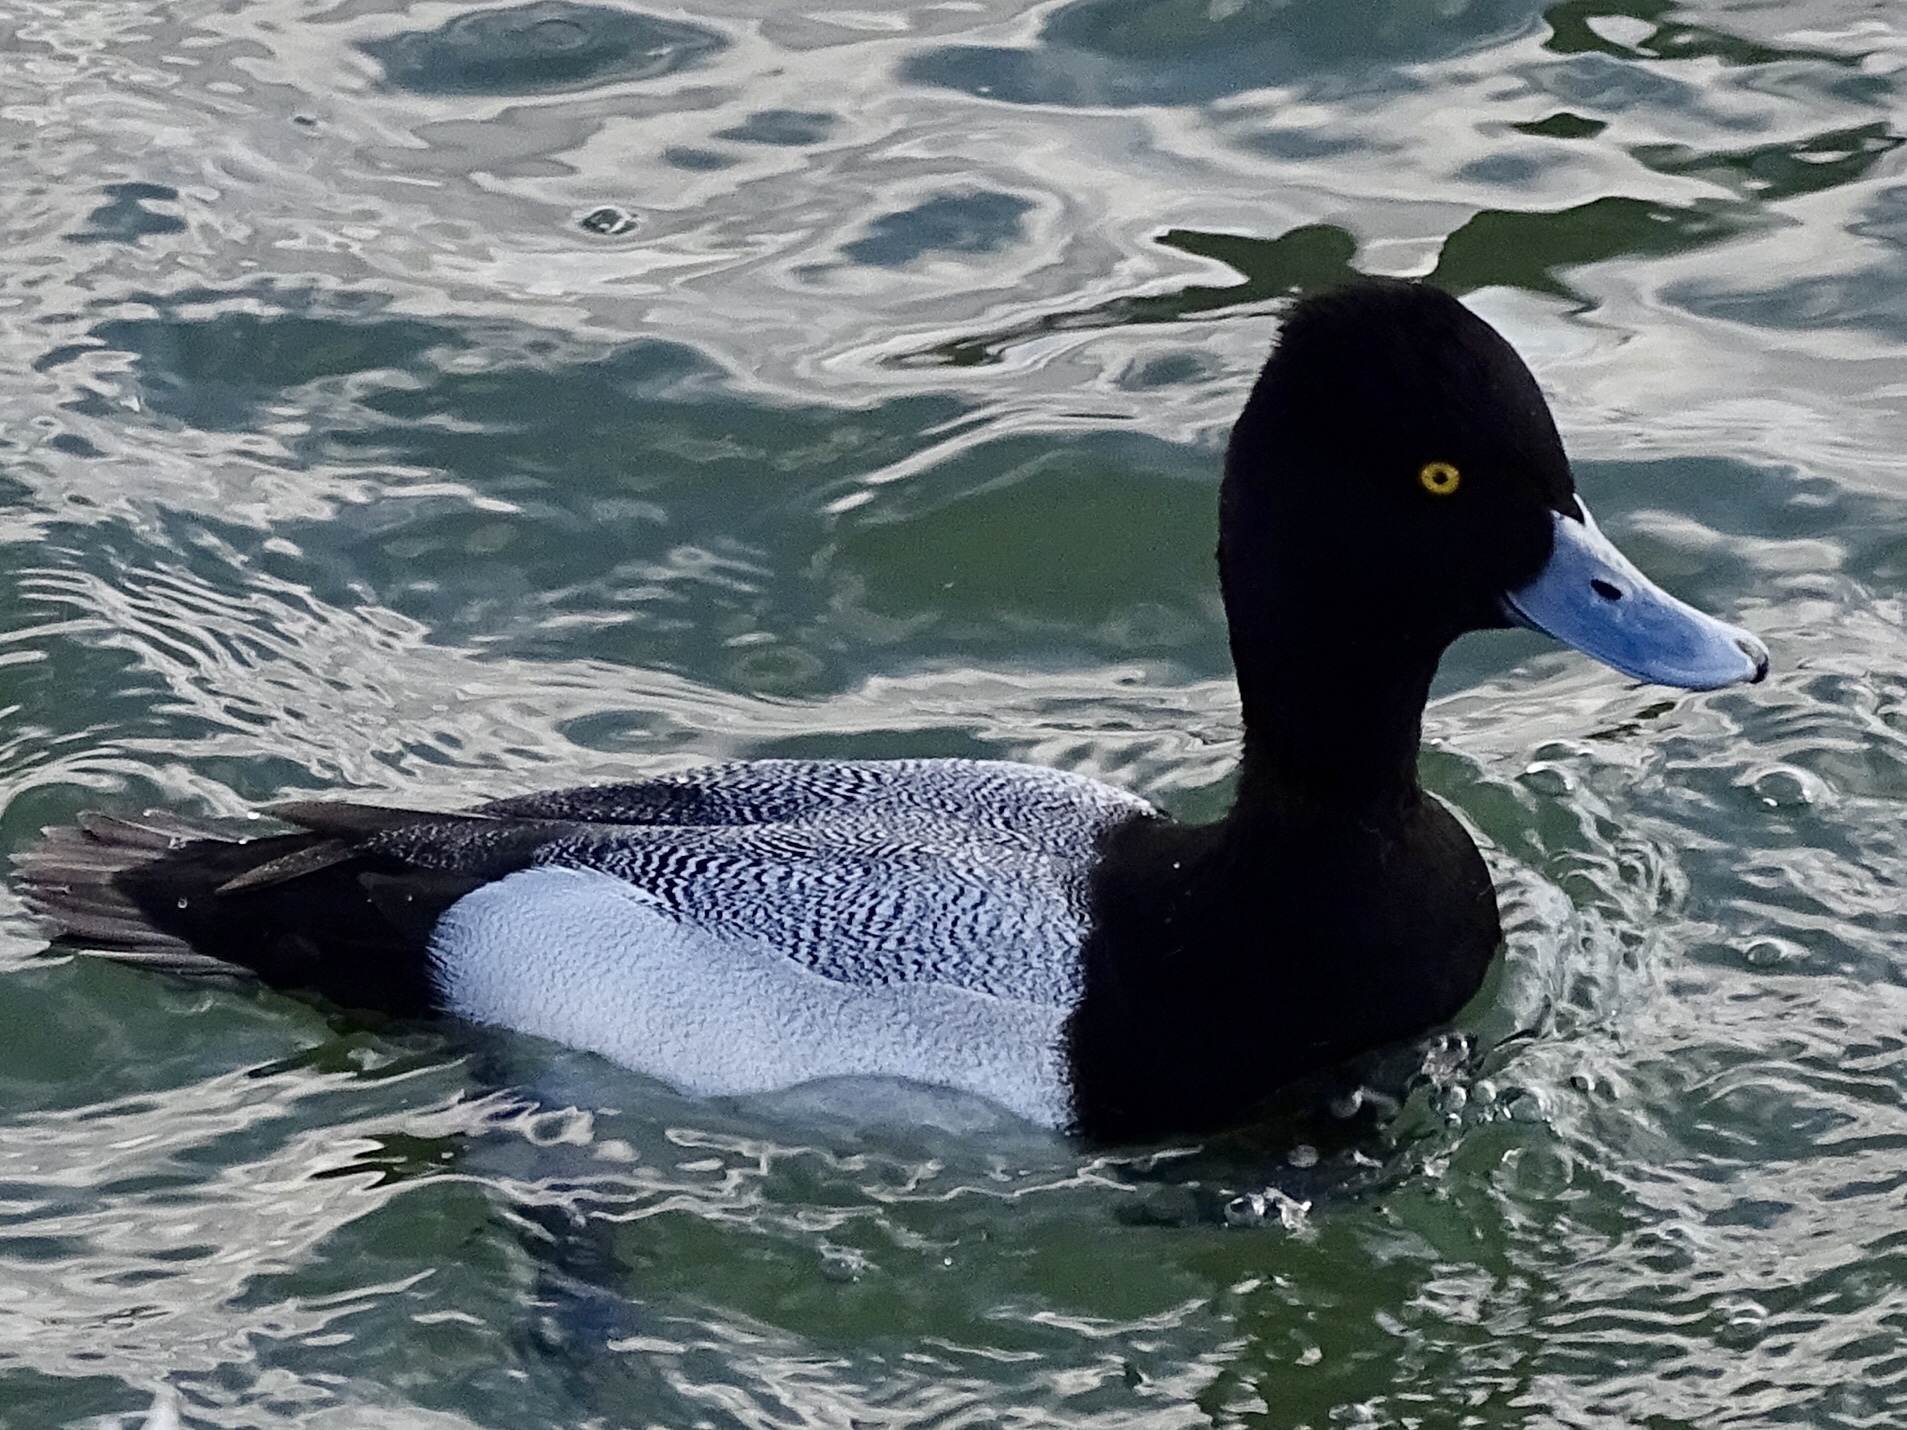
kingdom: Animalia
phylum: Chordata
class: Aves
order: Anseriformes
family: Anatidae
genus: Aythya
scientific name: Aythya affinis
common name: Lesser scaup
